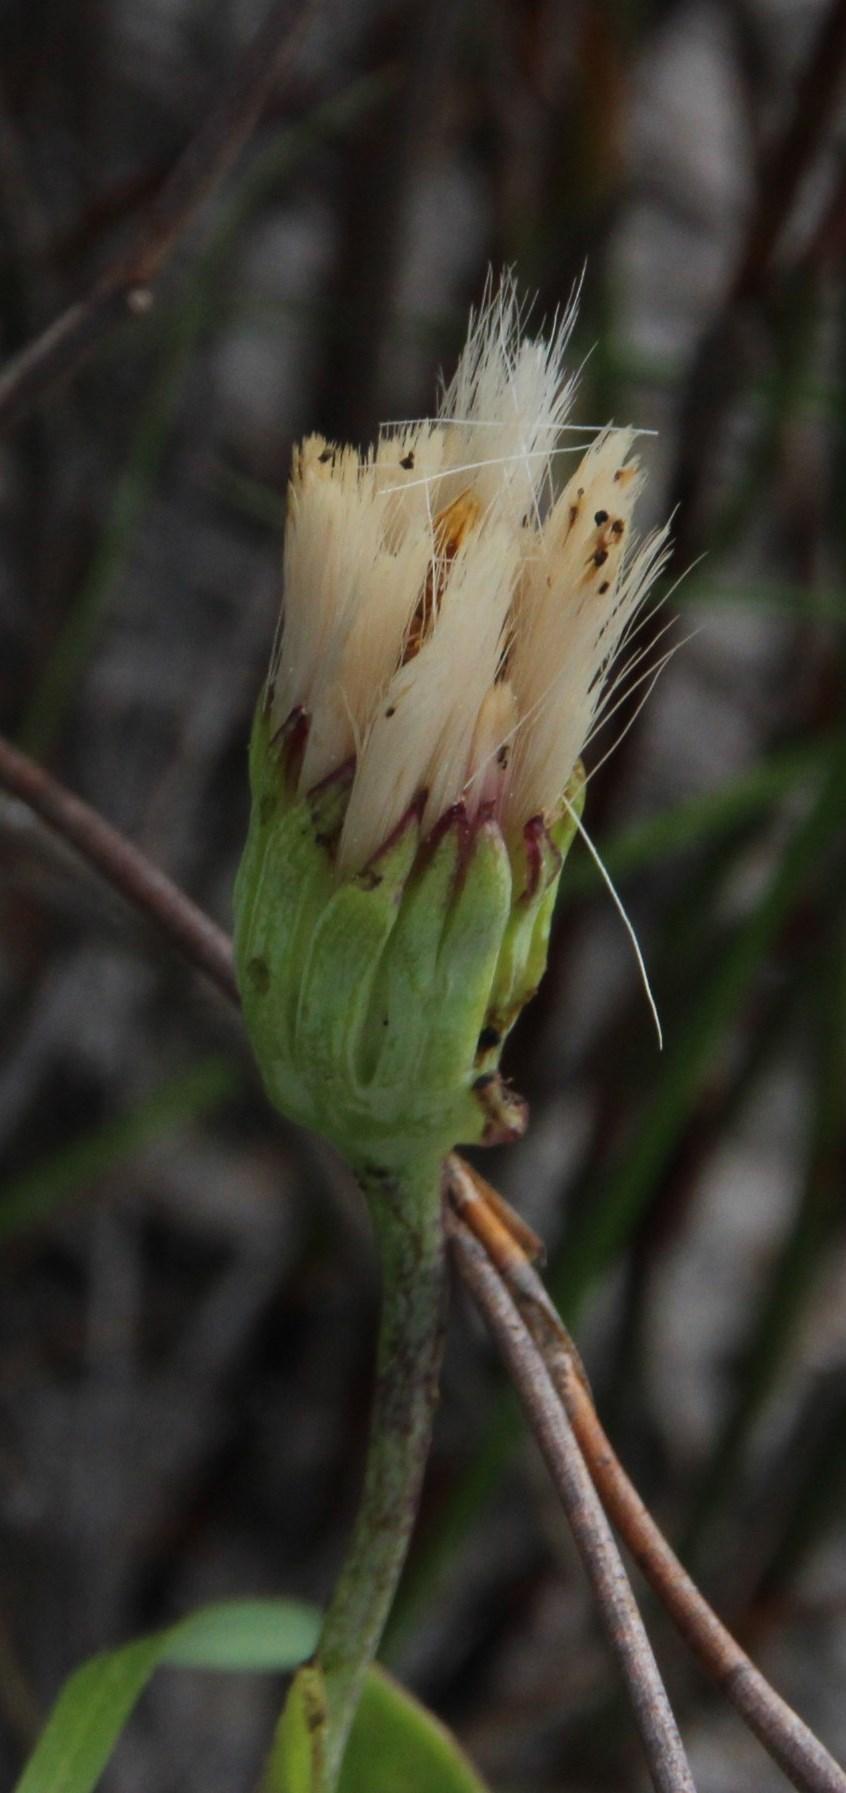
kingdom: Plantae
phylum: Tracheophyta
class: Magnoliopsida
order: Asterales
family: Asteraceae
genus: Othonna
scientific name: Othonna gymnodiscus
